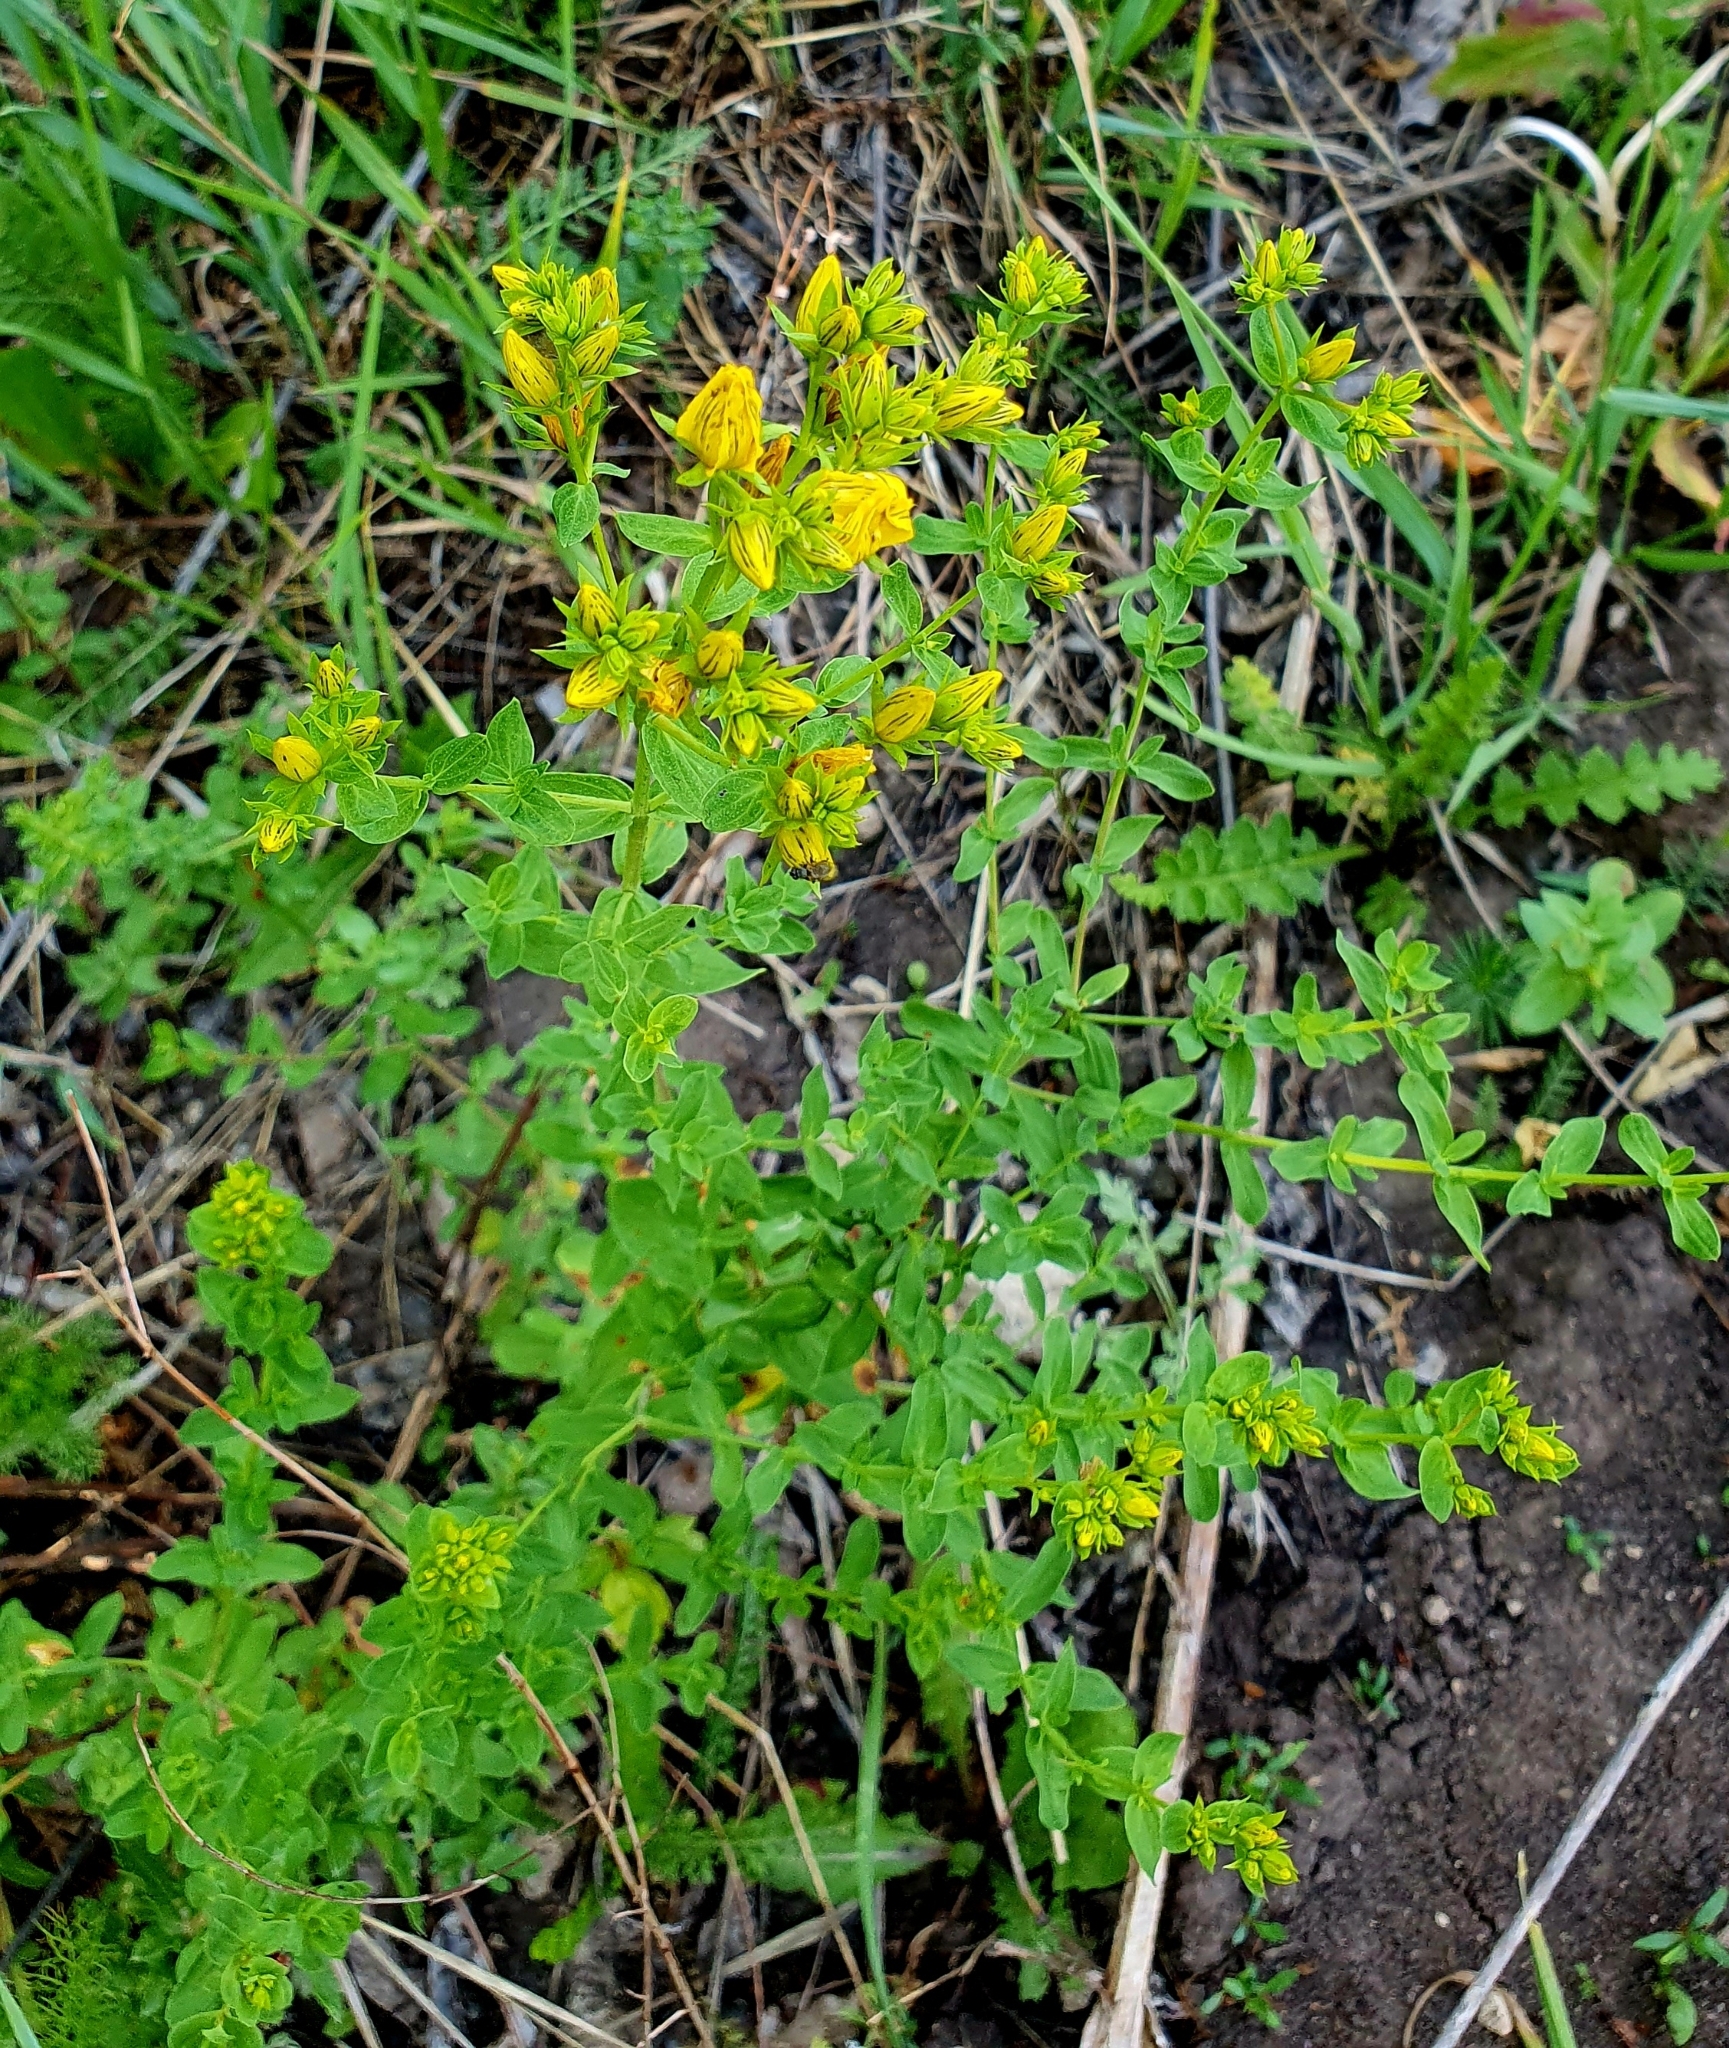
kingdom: Plantae
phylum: Tracheophyta
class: Magnoliopsida
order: Malpighiales
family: Hypericaceae
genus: Hypericum
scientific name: Hypericum perforatum
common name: Common st. johnswort
